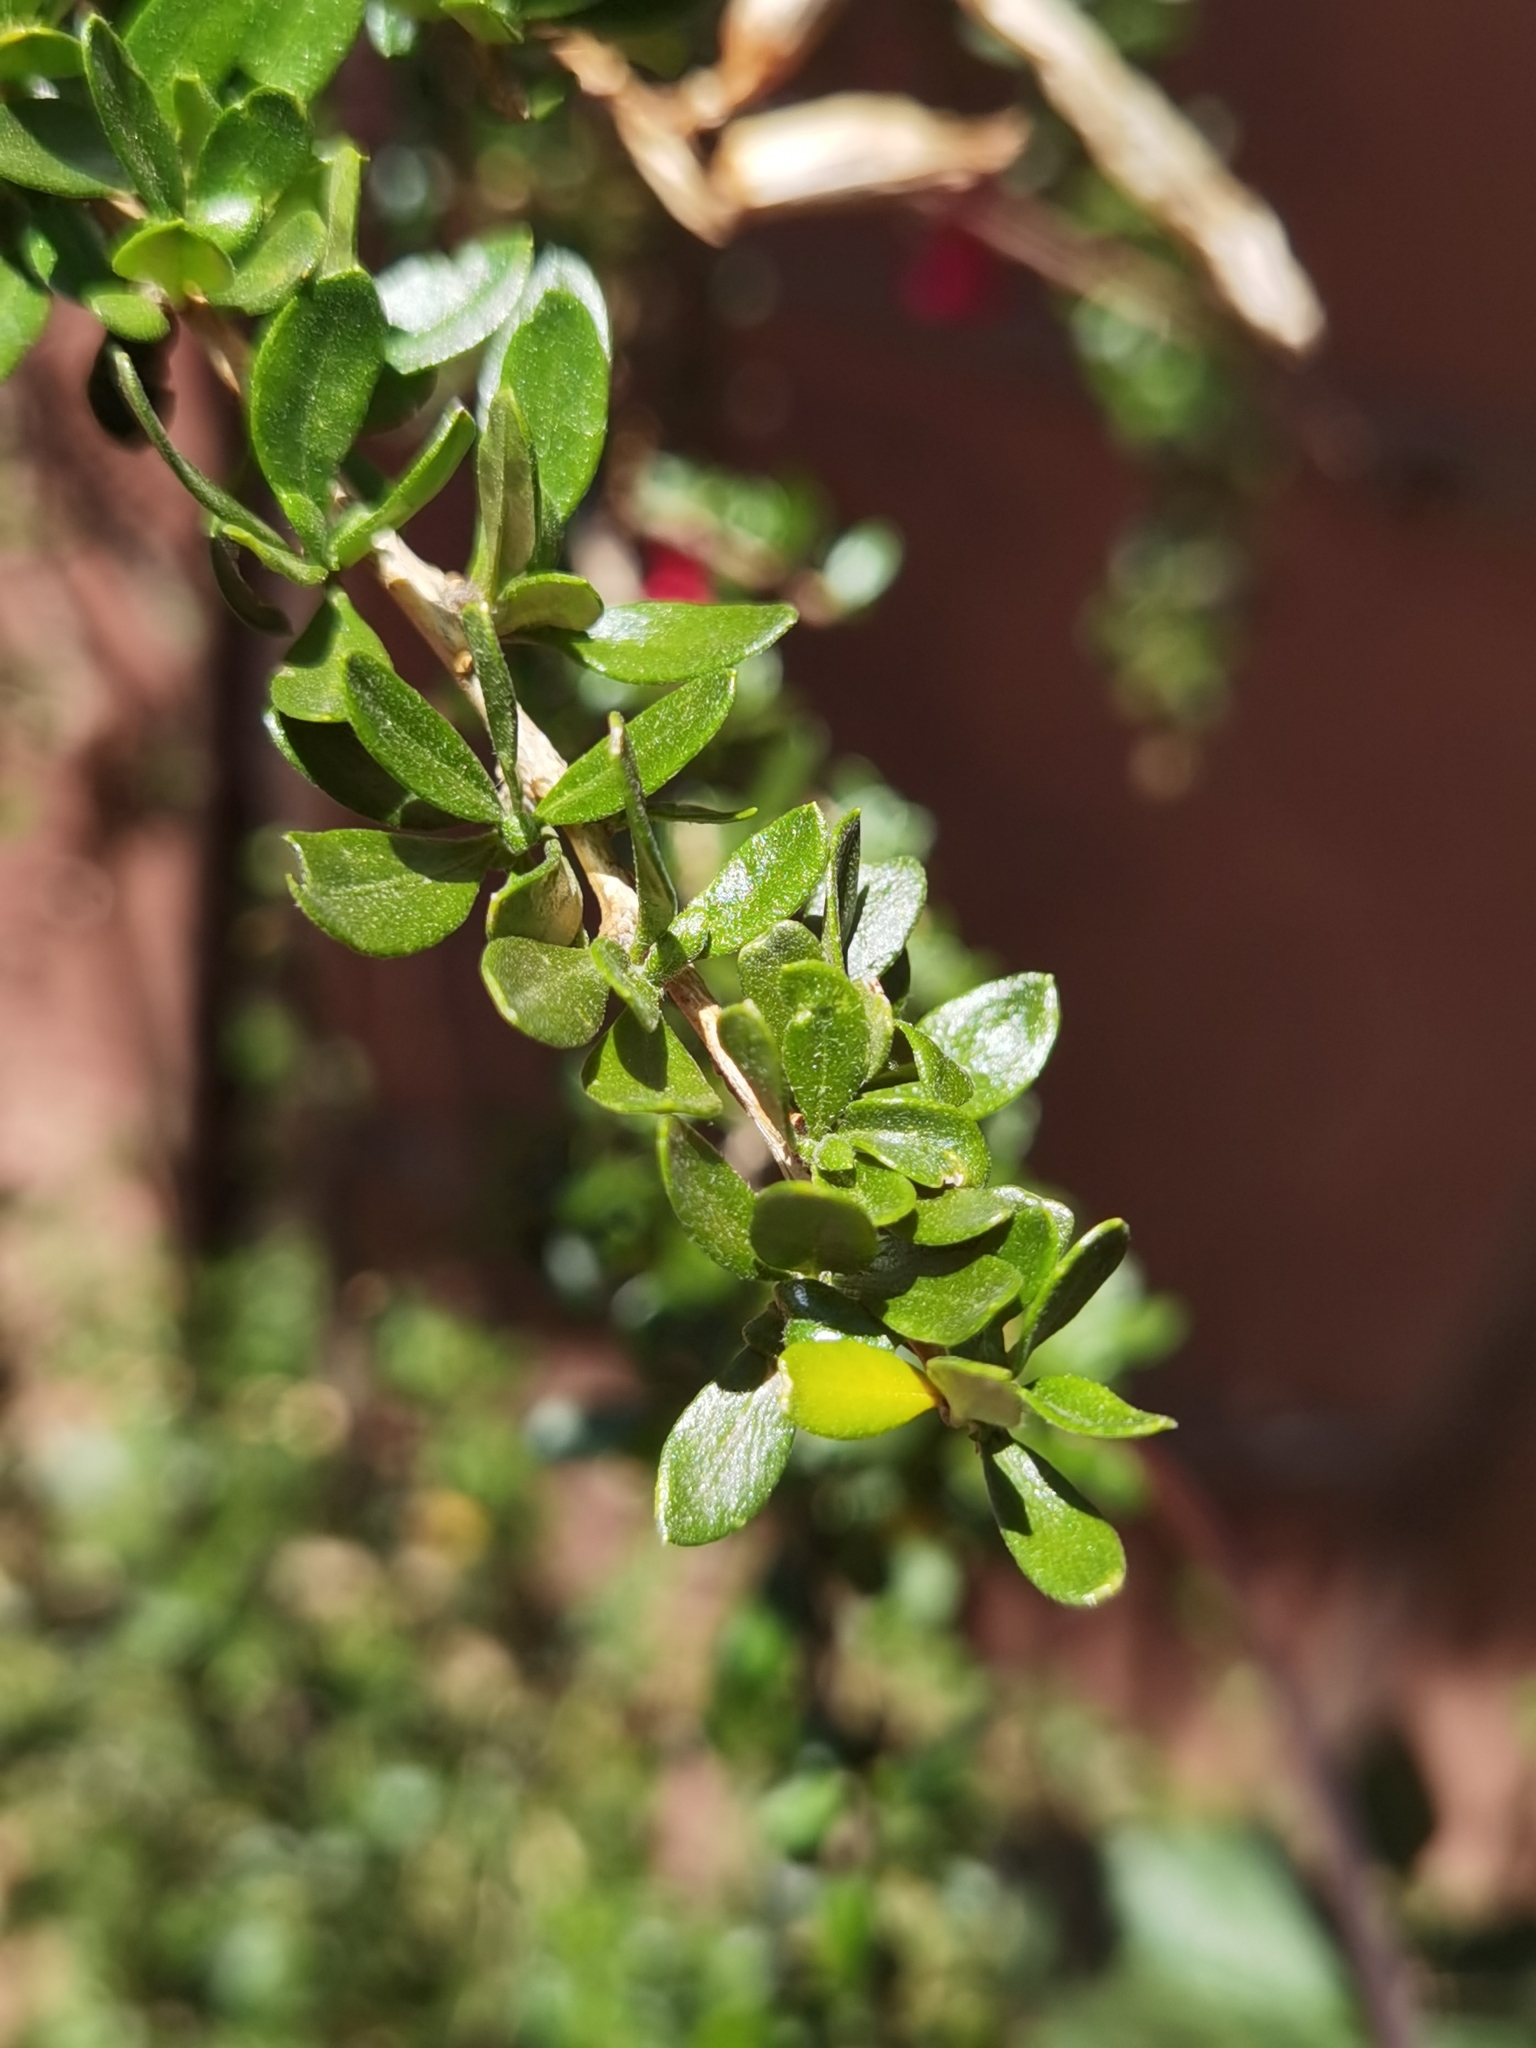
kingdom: Plantae
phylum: Tracheophyta
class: Magnoliopsida
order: Ericales
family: Polemoniaceae
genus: Cantua
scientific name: Cantua buxifolia
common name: Sacred-flower-of-the-incas
